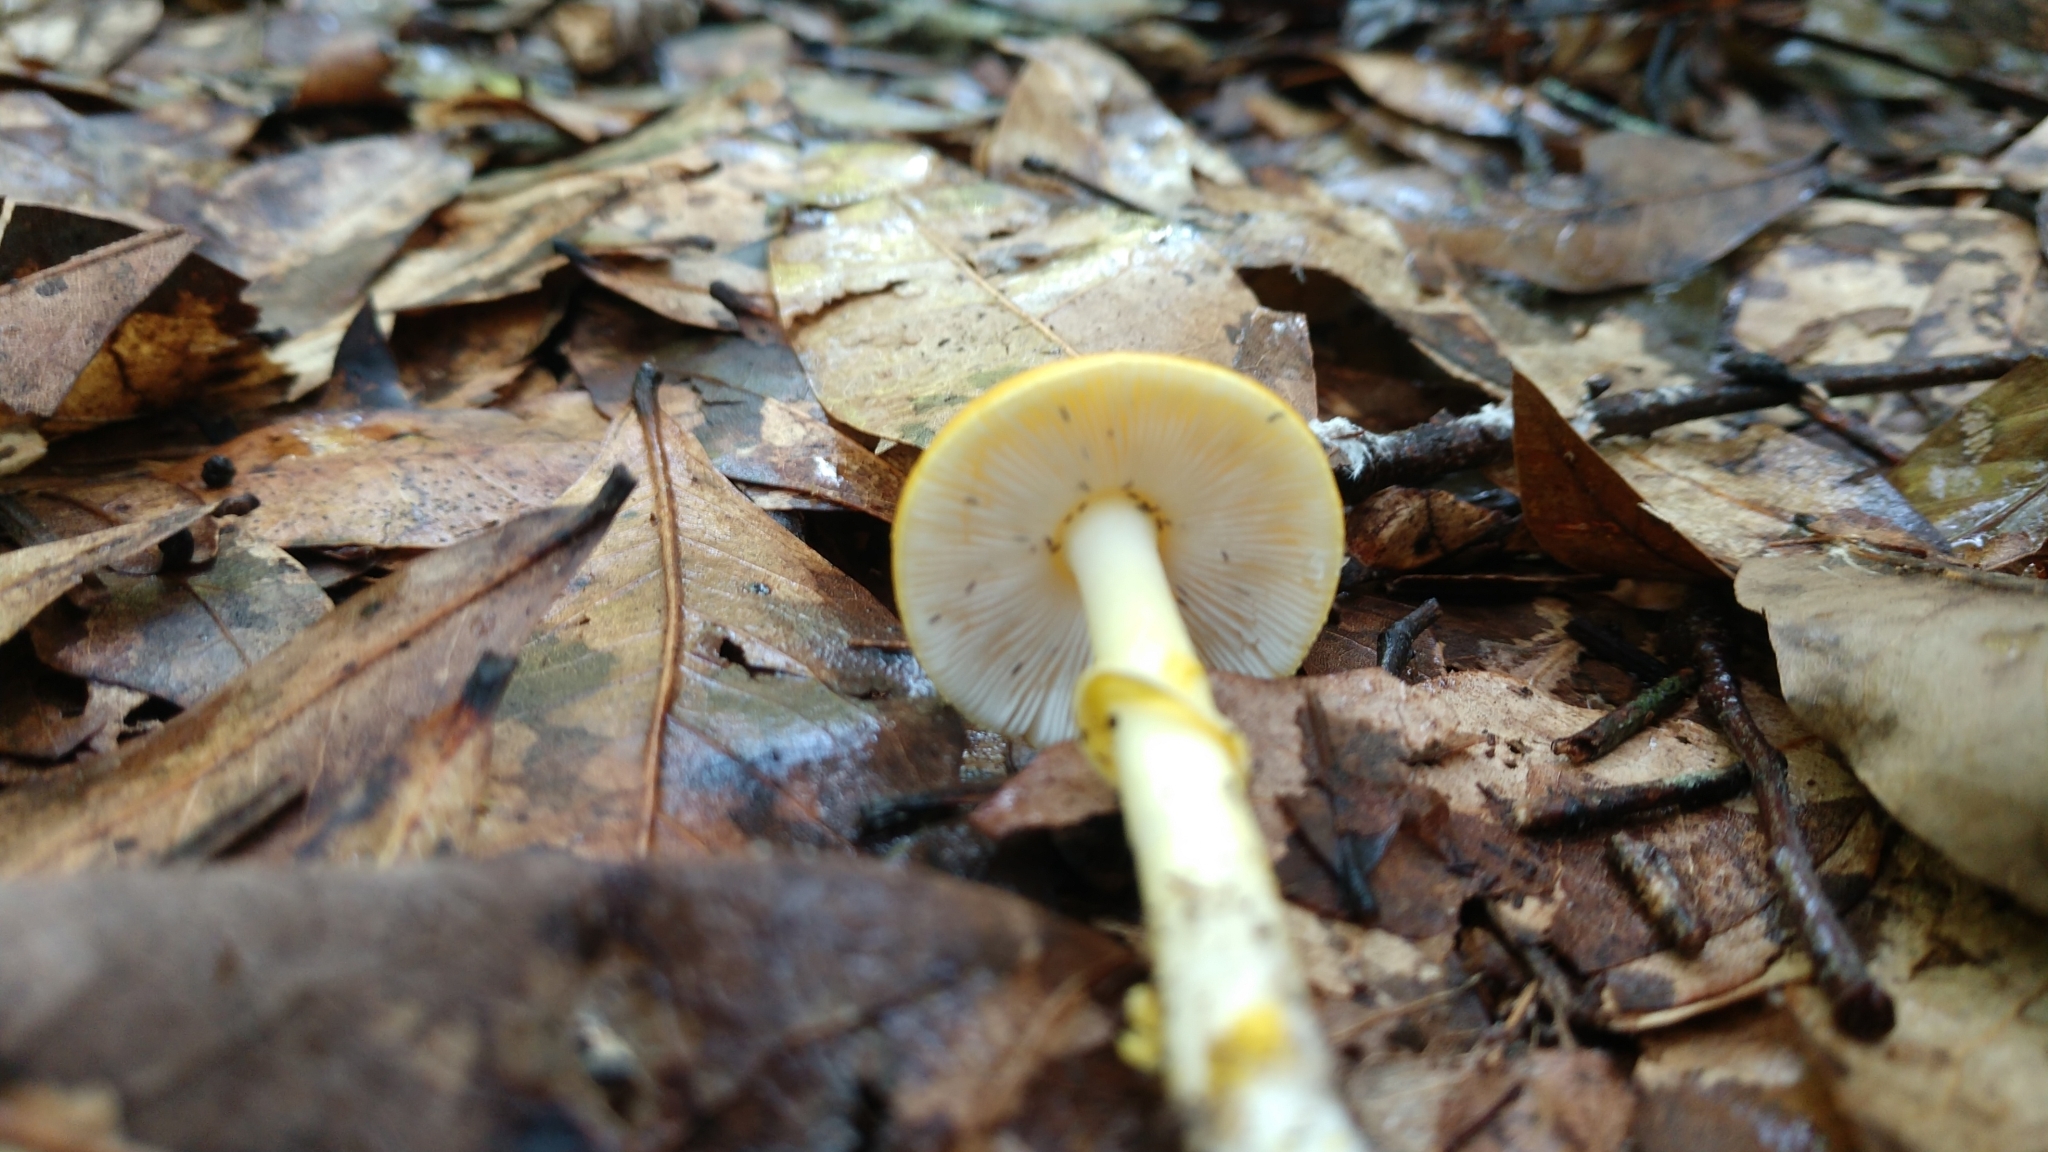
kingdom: Fungi
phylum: Basidiomycota
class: Agaricomycetes
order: Agaricales
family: Amanitaceae
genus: Amanita
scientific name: Amanita flavoconia
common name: Yellow patches
